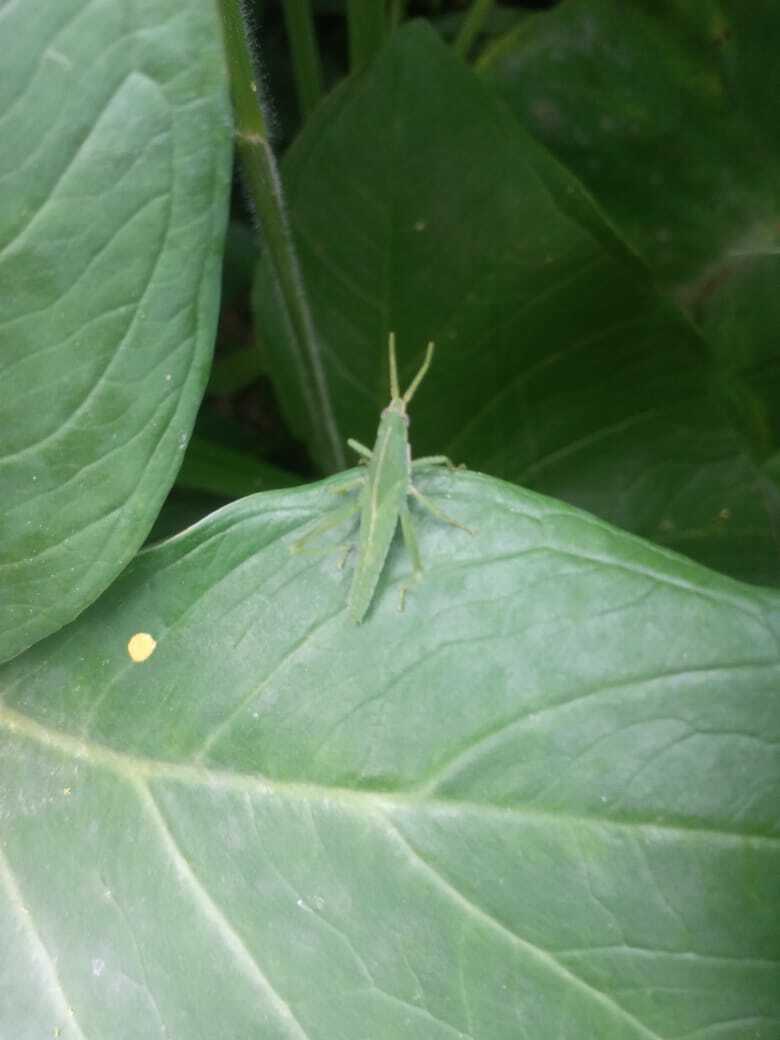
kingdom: Animalia
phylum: Arthropoda
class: Insecta
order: Orthoptera
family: Romaleidae
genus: Prionolopha
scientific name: Prionolopha serrata
